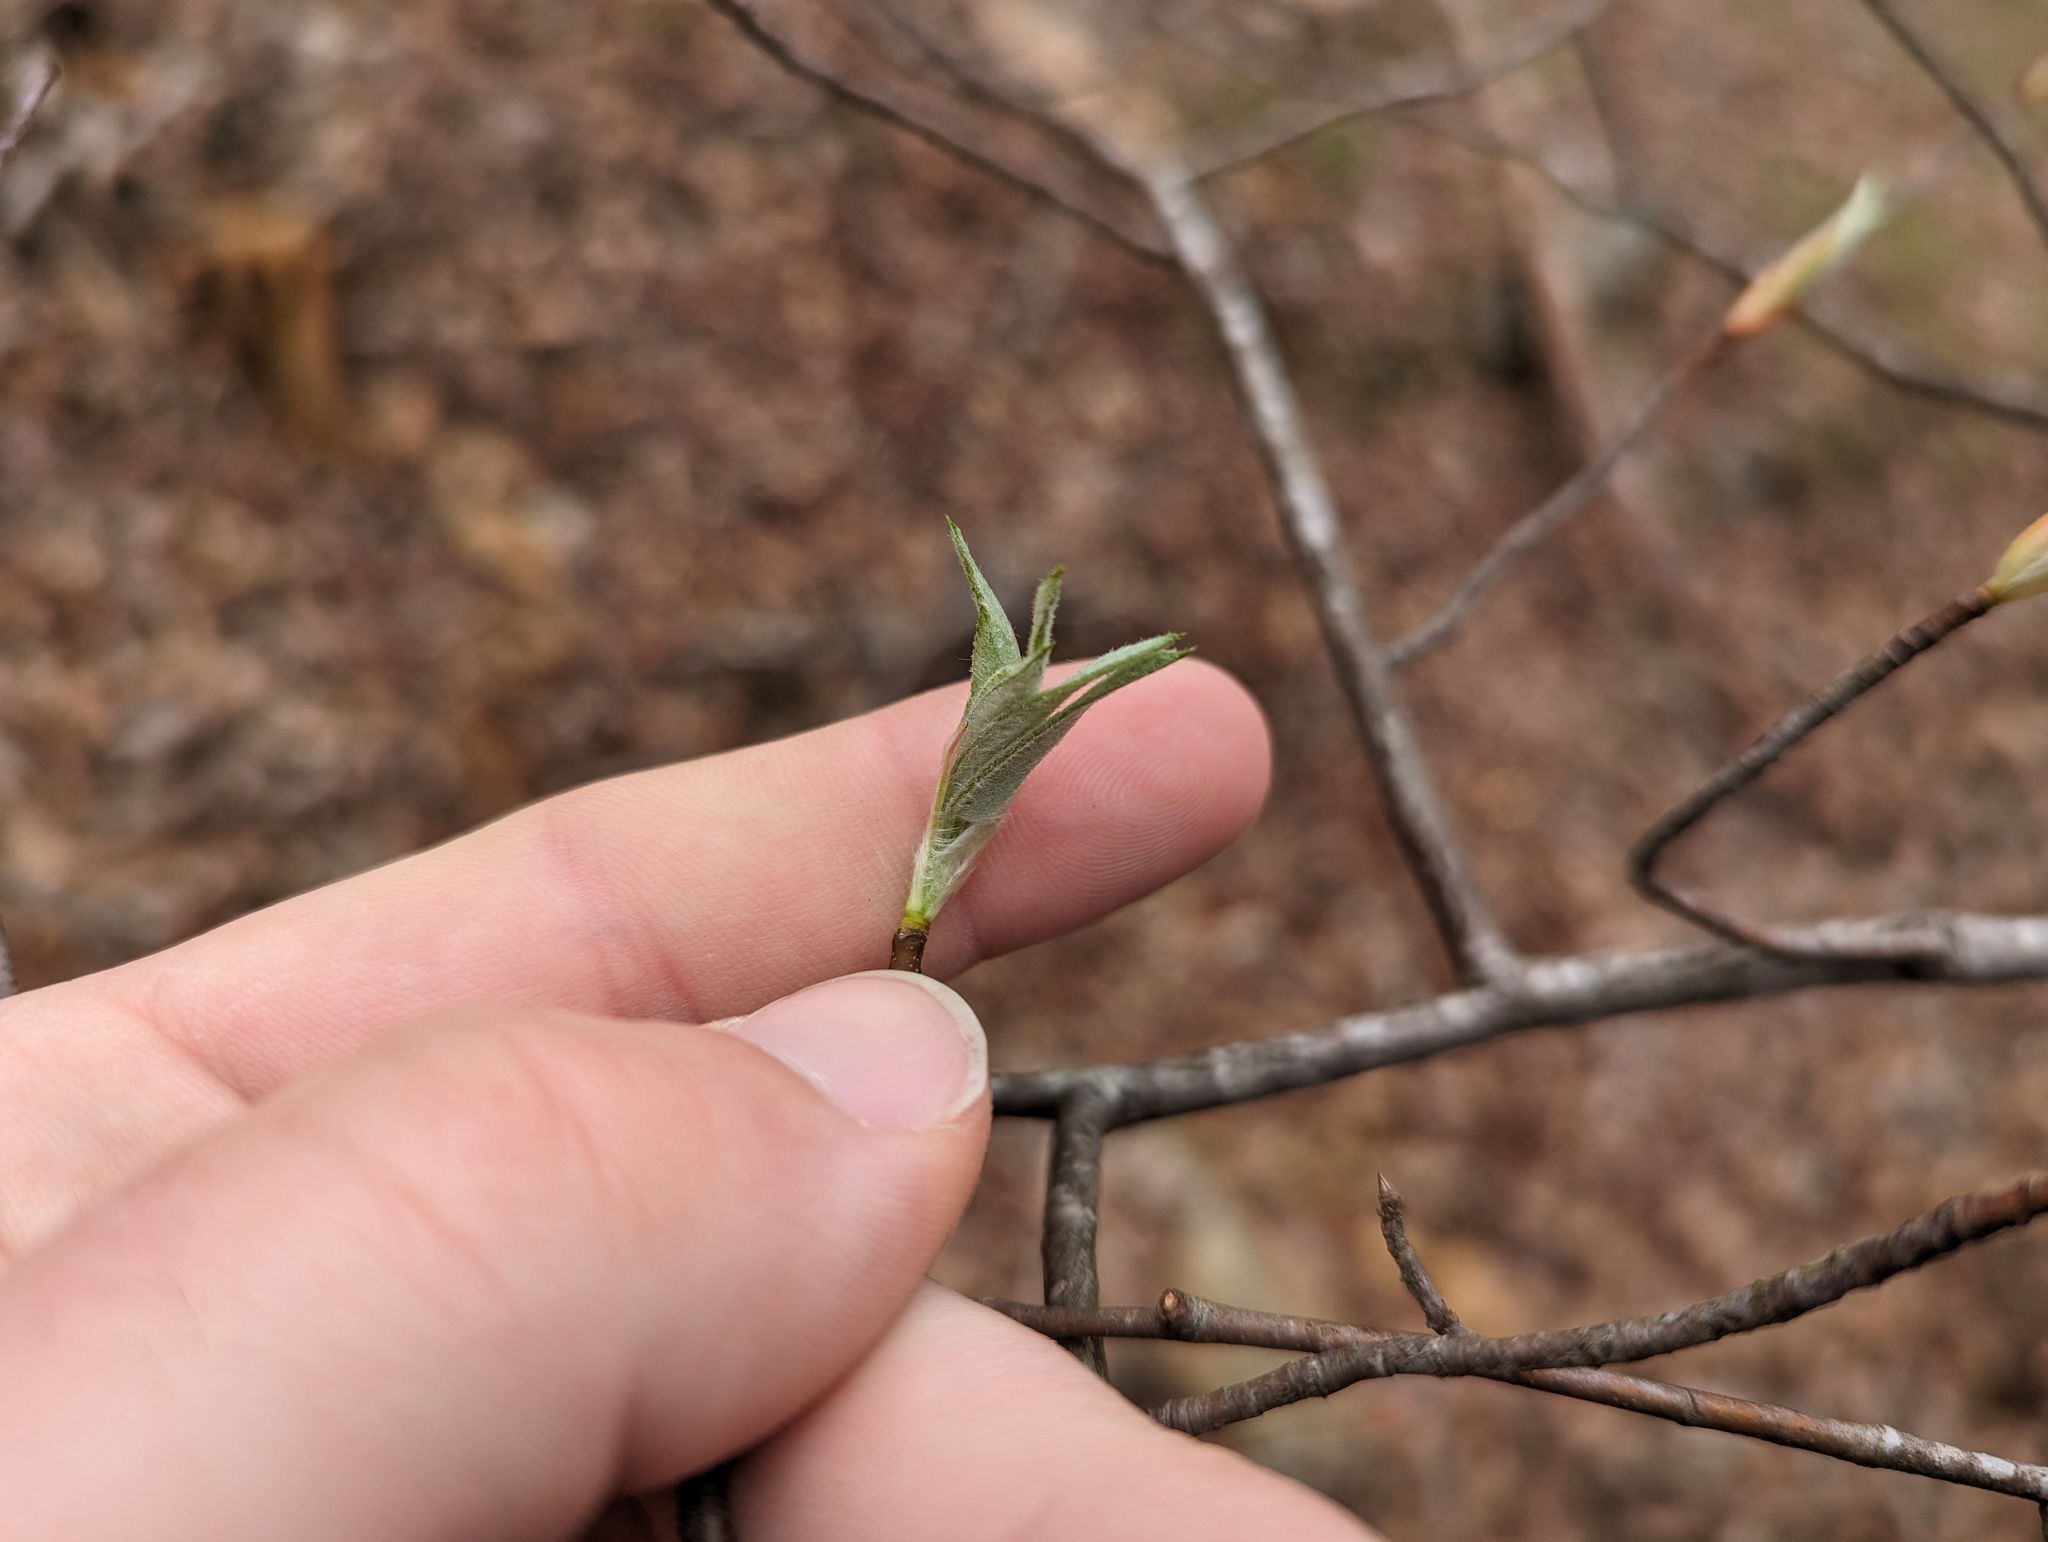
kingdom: Plantae
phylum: Tracheophyta
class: Magnoliopsida
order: Rosales
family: Rosaceae
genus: Amelanchier
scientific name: Amelanchier arborea
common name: Downy serviceberry
